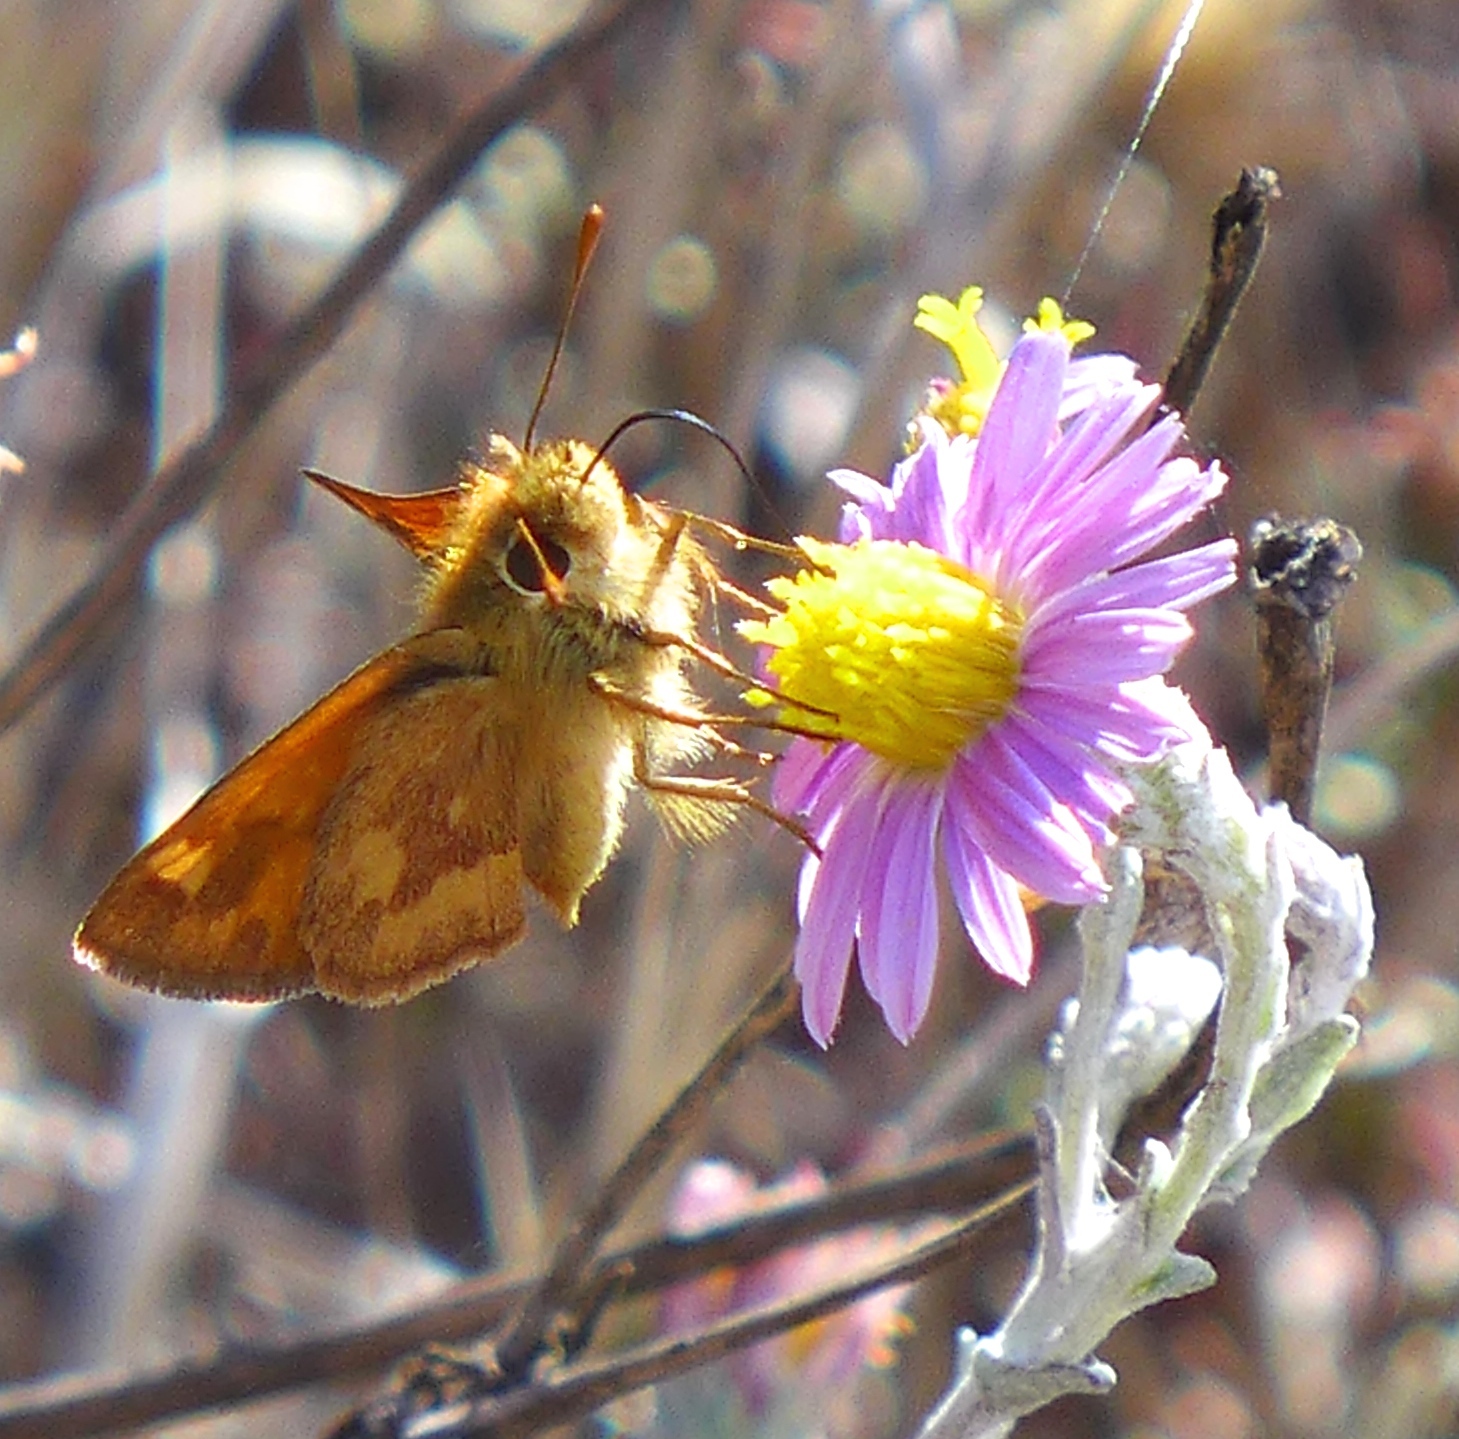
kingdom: Animalia
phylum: Arthropoda
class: Insecta
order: Lepidoptera
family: Hesperiidae
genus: Ochlodes
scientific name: Ochlodes sylvanoides
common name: Woodland skipper
